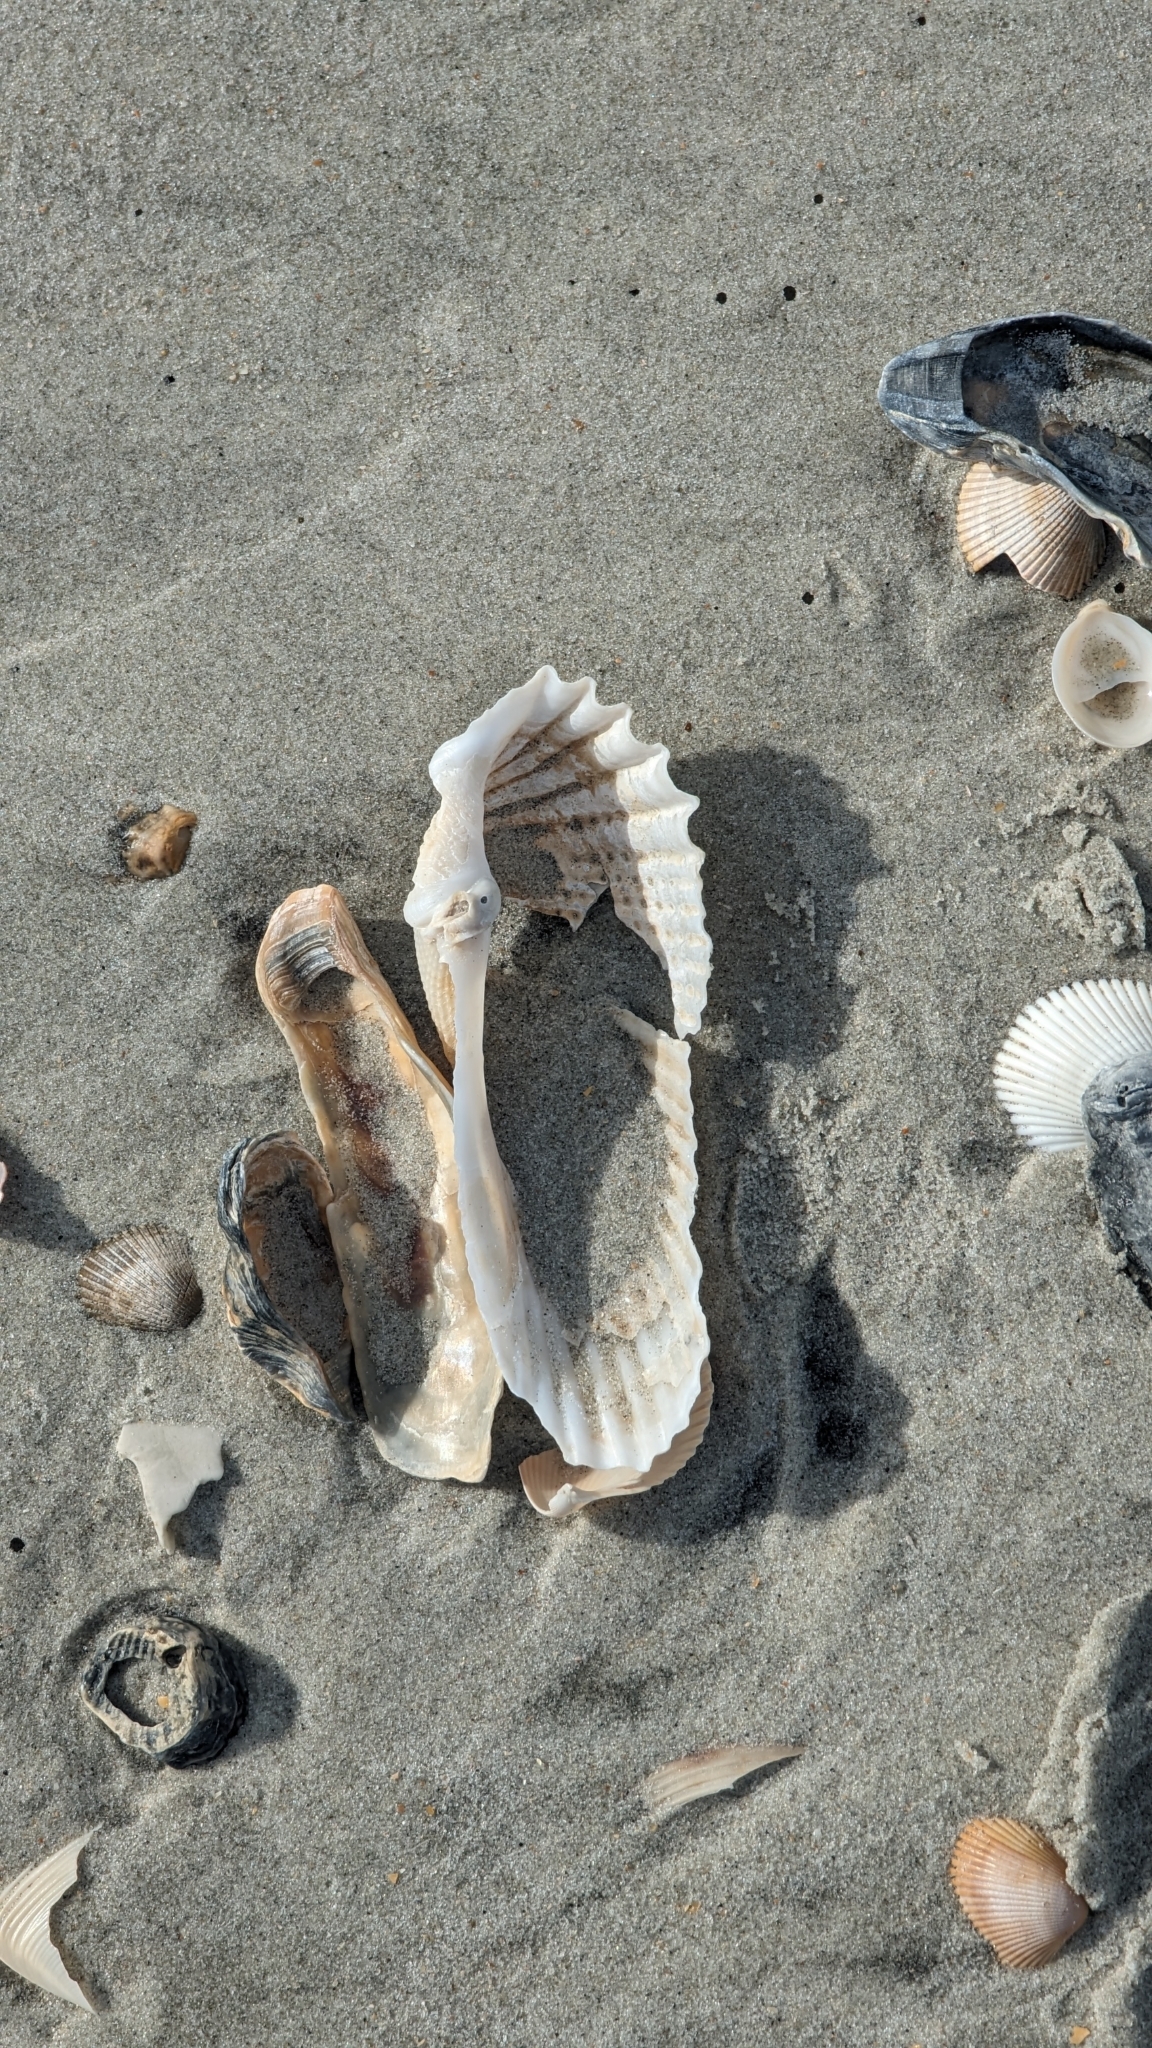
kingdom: Animalia
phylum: Mollusca
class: Bivalvia
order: Myida
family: Pholadidae
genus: Cyrtopleura
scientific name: Cyrtopleura costata
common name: Angel wing
